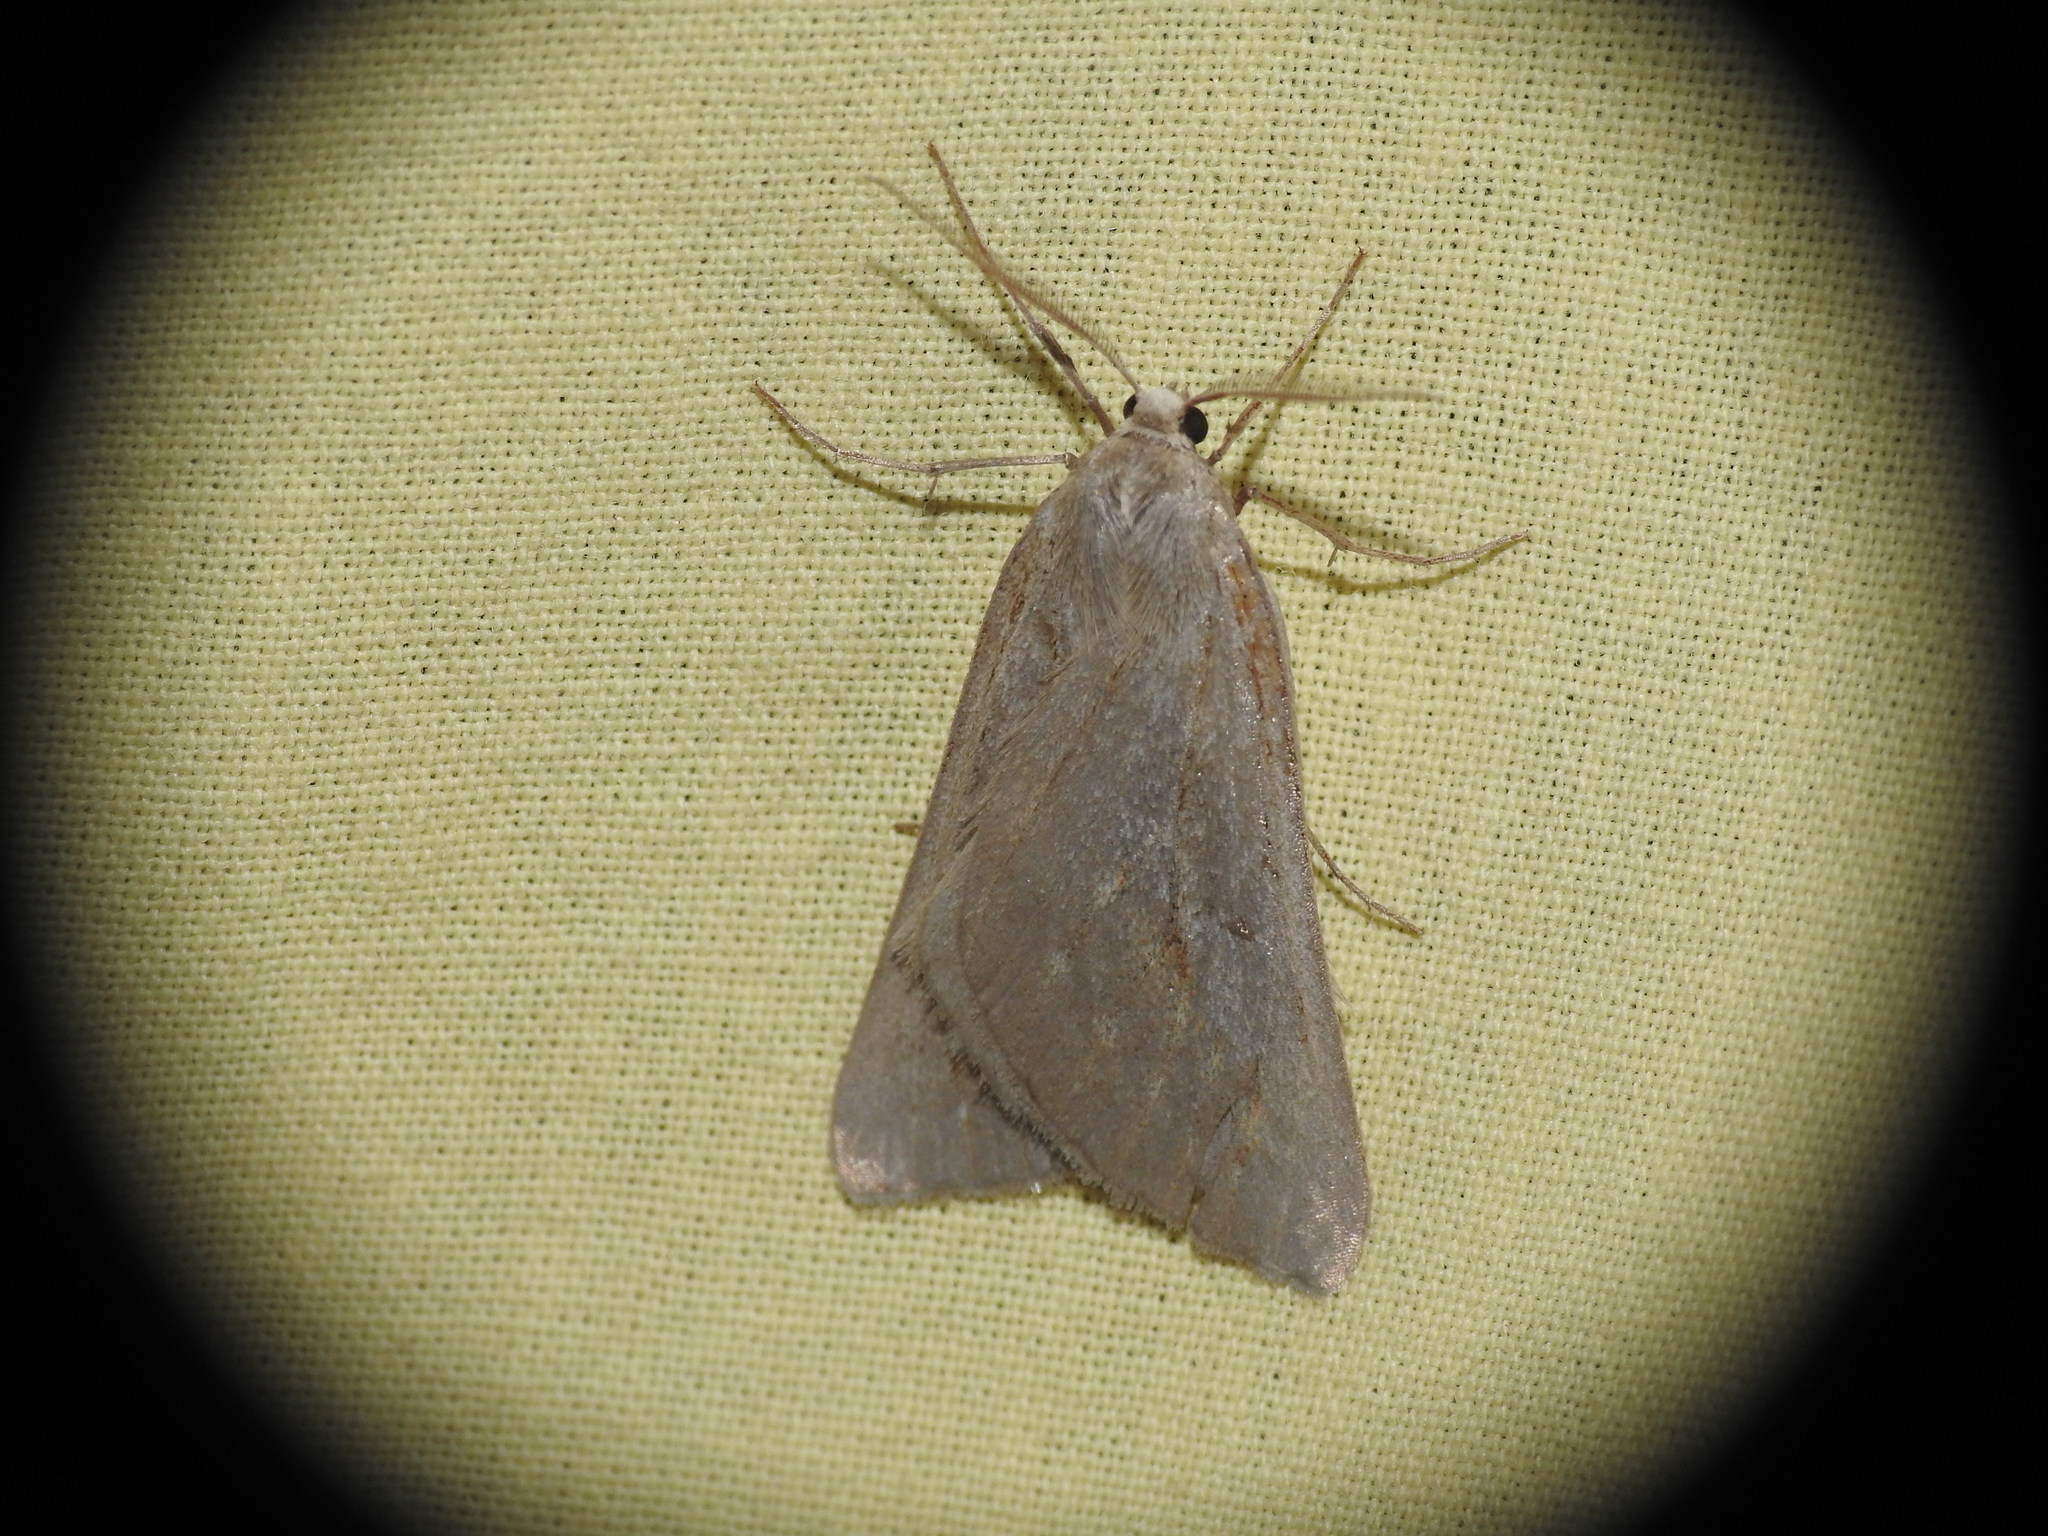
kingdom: Animalia
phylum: Arthropoda
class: Insecta
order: Lepidoptera
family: Geometridae
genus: Chemerina
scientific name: Chemerina caliginearia
